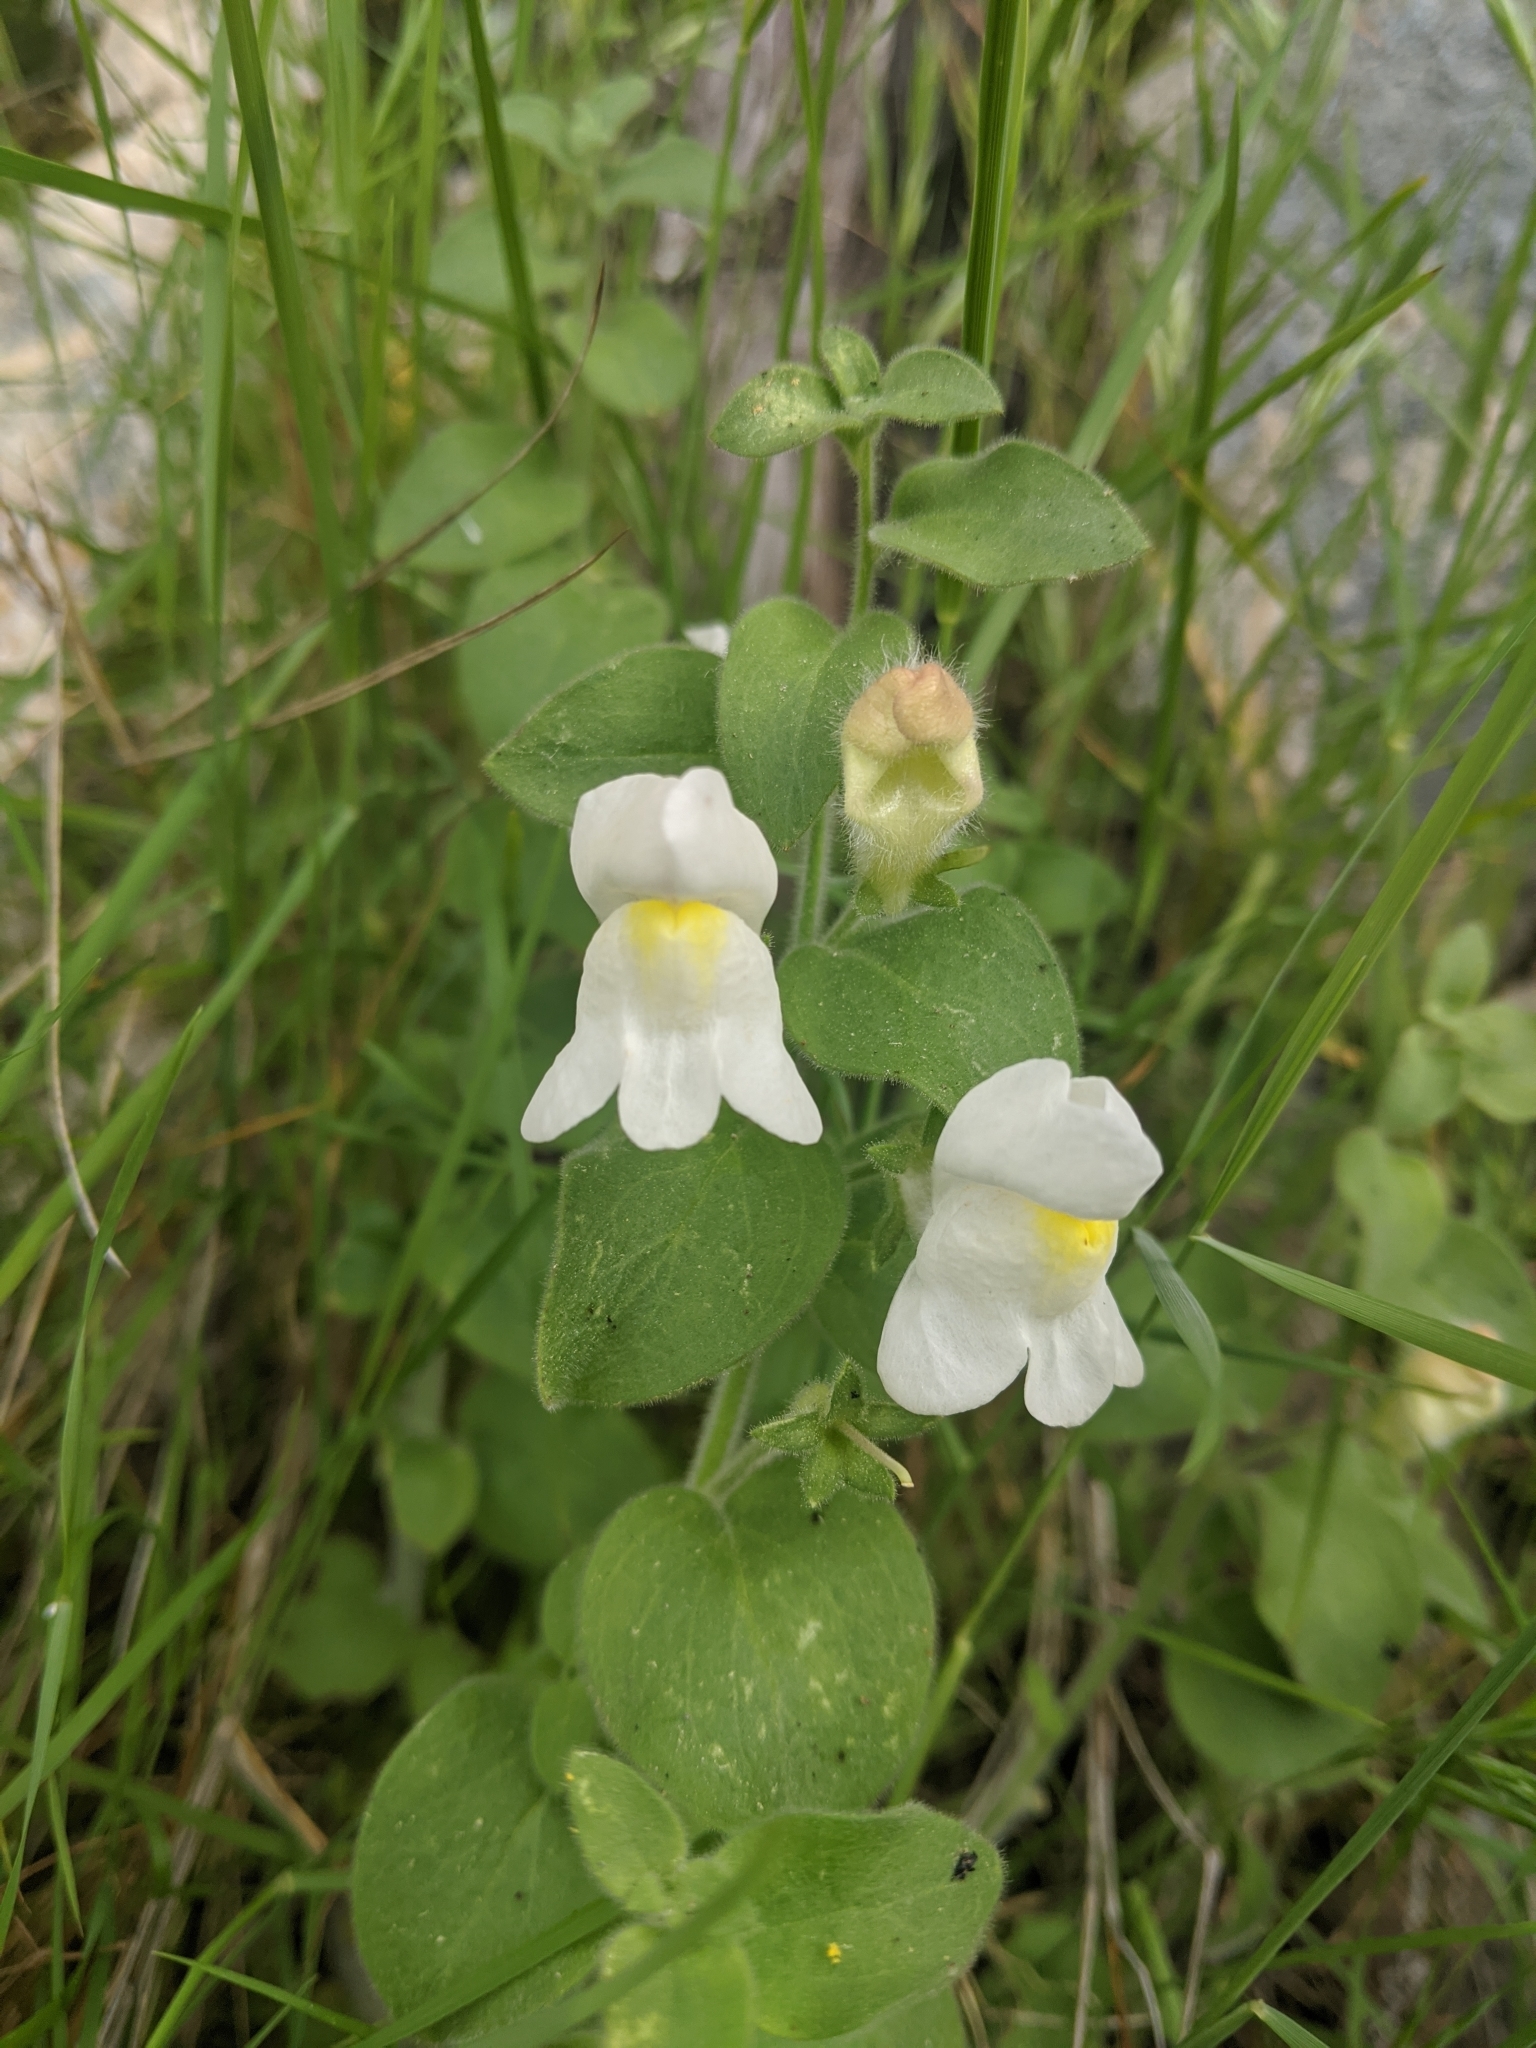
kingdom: Plantae
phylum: Tracheophyta
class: Magnoliopsida
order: Lamiales
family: Plantaginaceae
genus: Antirrhinum
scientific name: Antirrhinum molle
